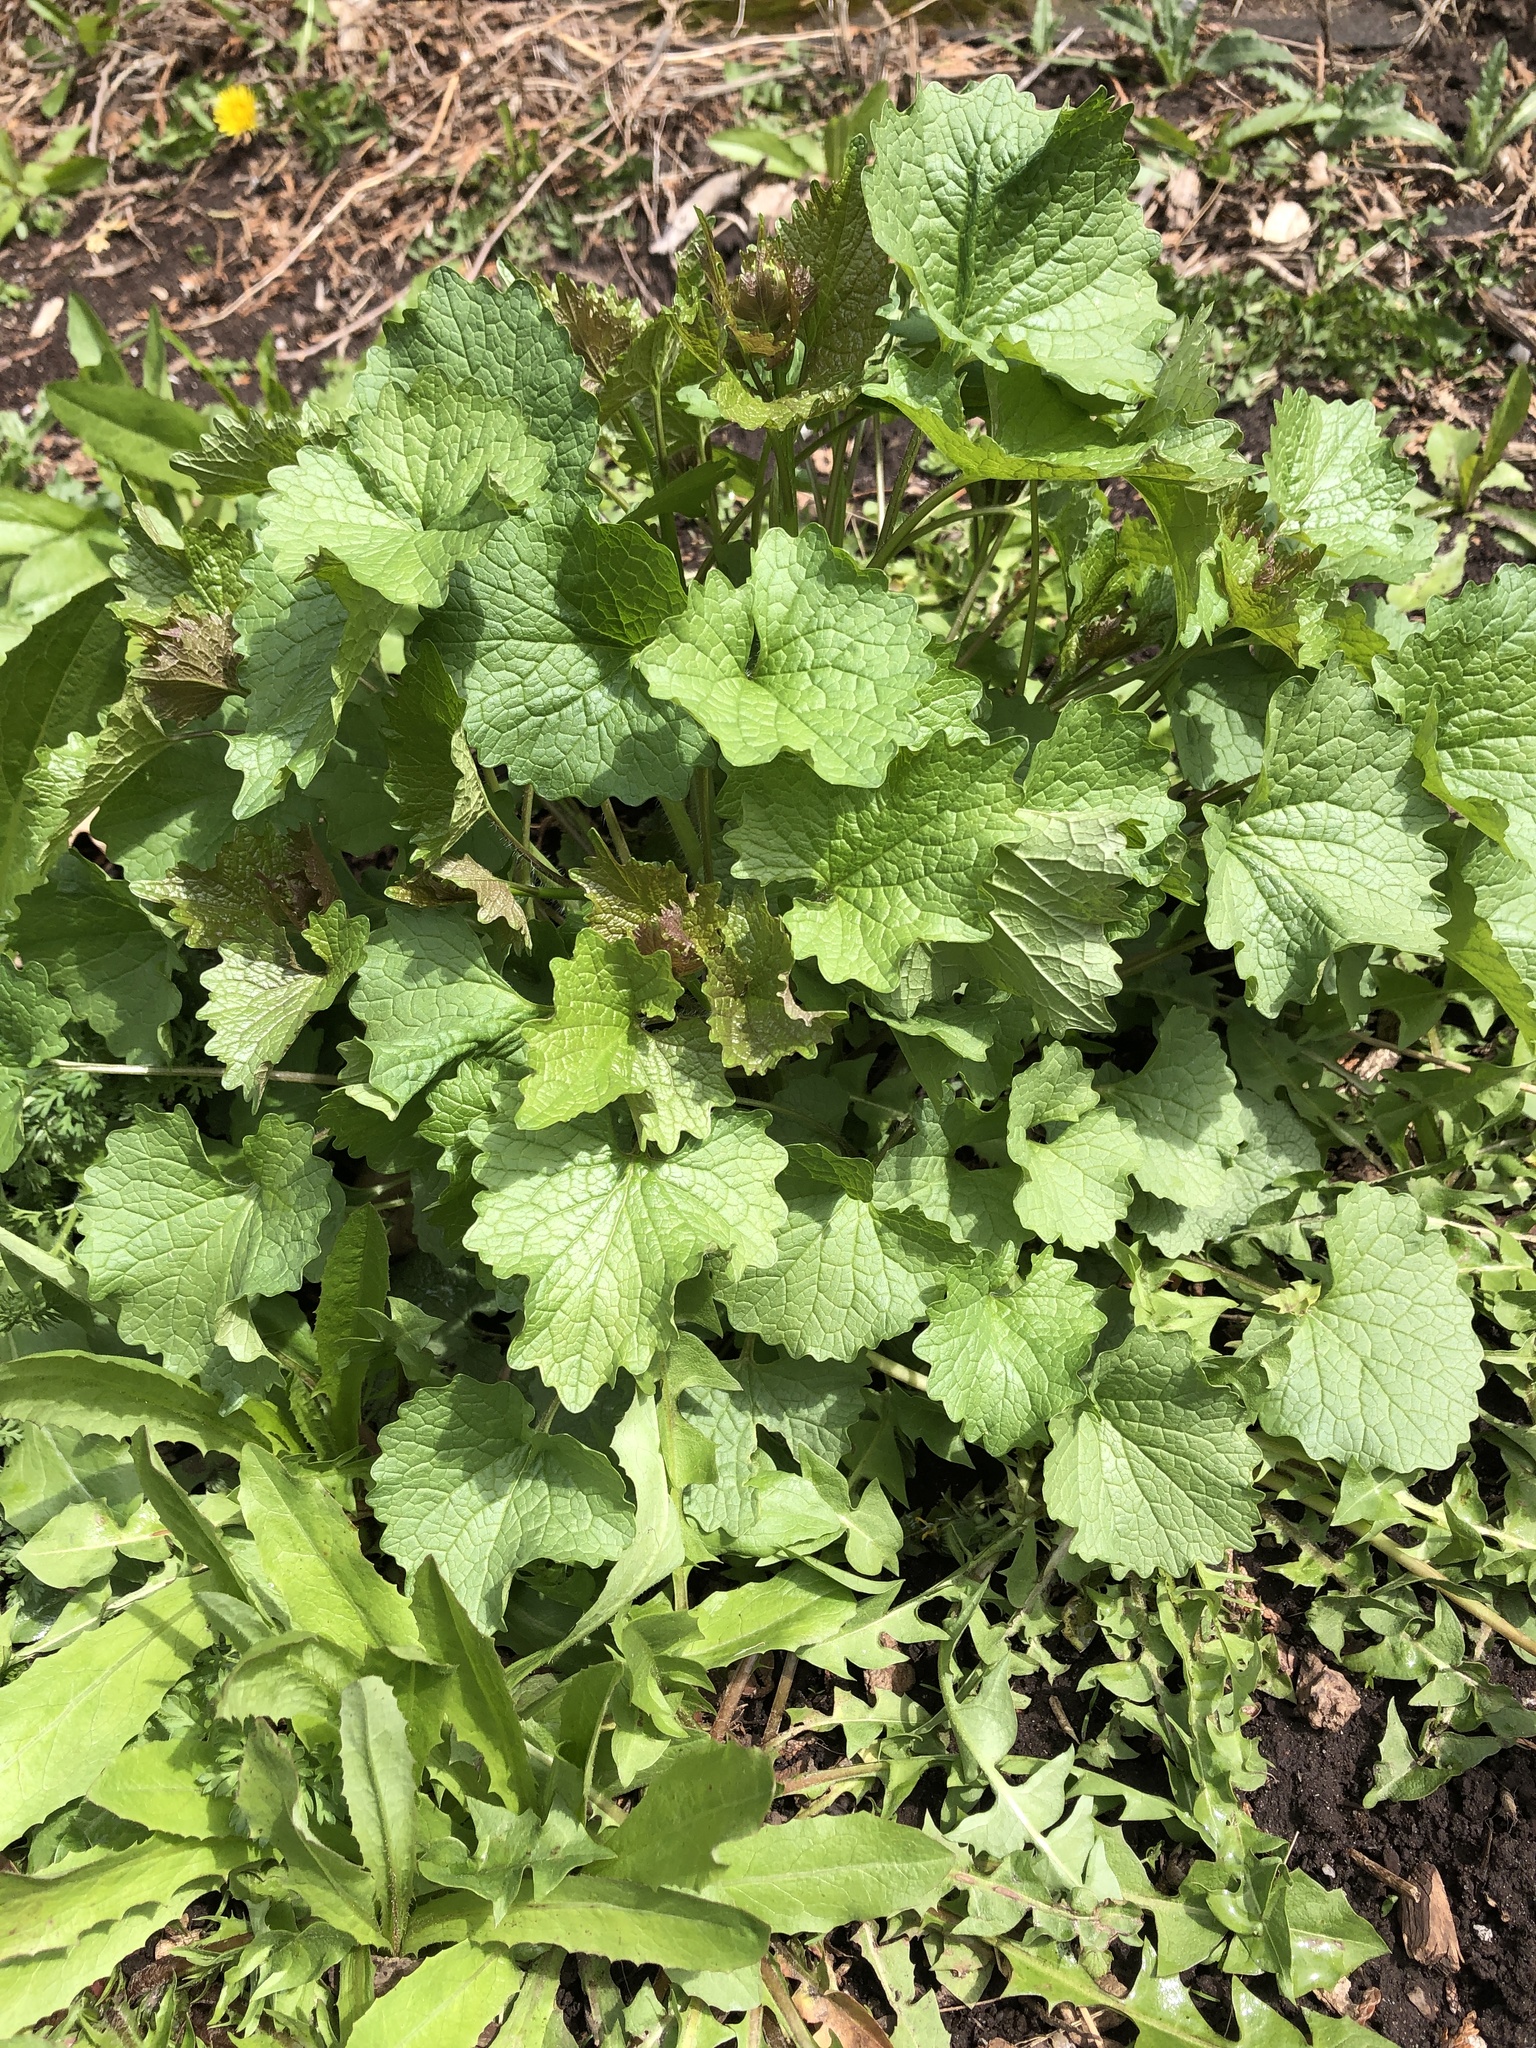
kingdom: Plantae
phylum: Tracheophyta
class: Magnoliopsida
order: Brassicales
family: Brassicaceae
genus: Alliaria
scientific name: Alliaria petiolata
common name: Garlic mustard
